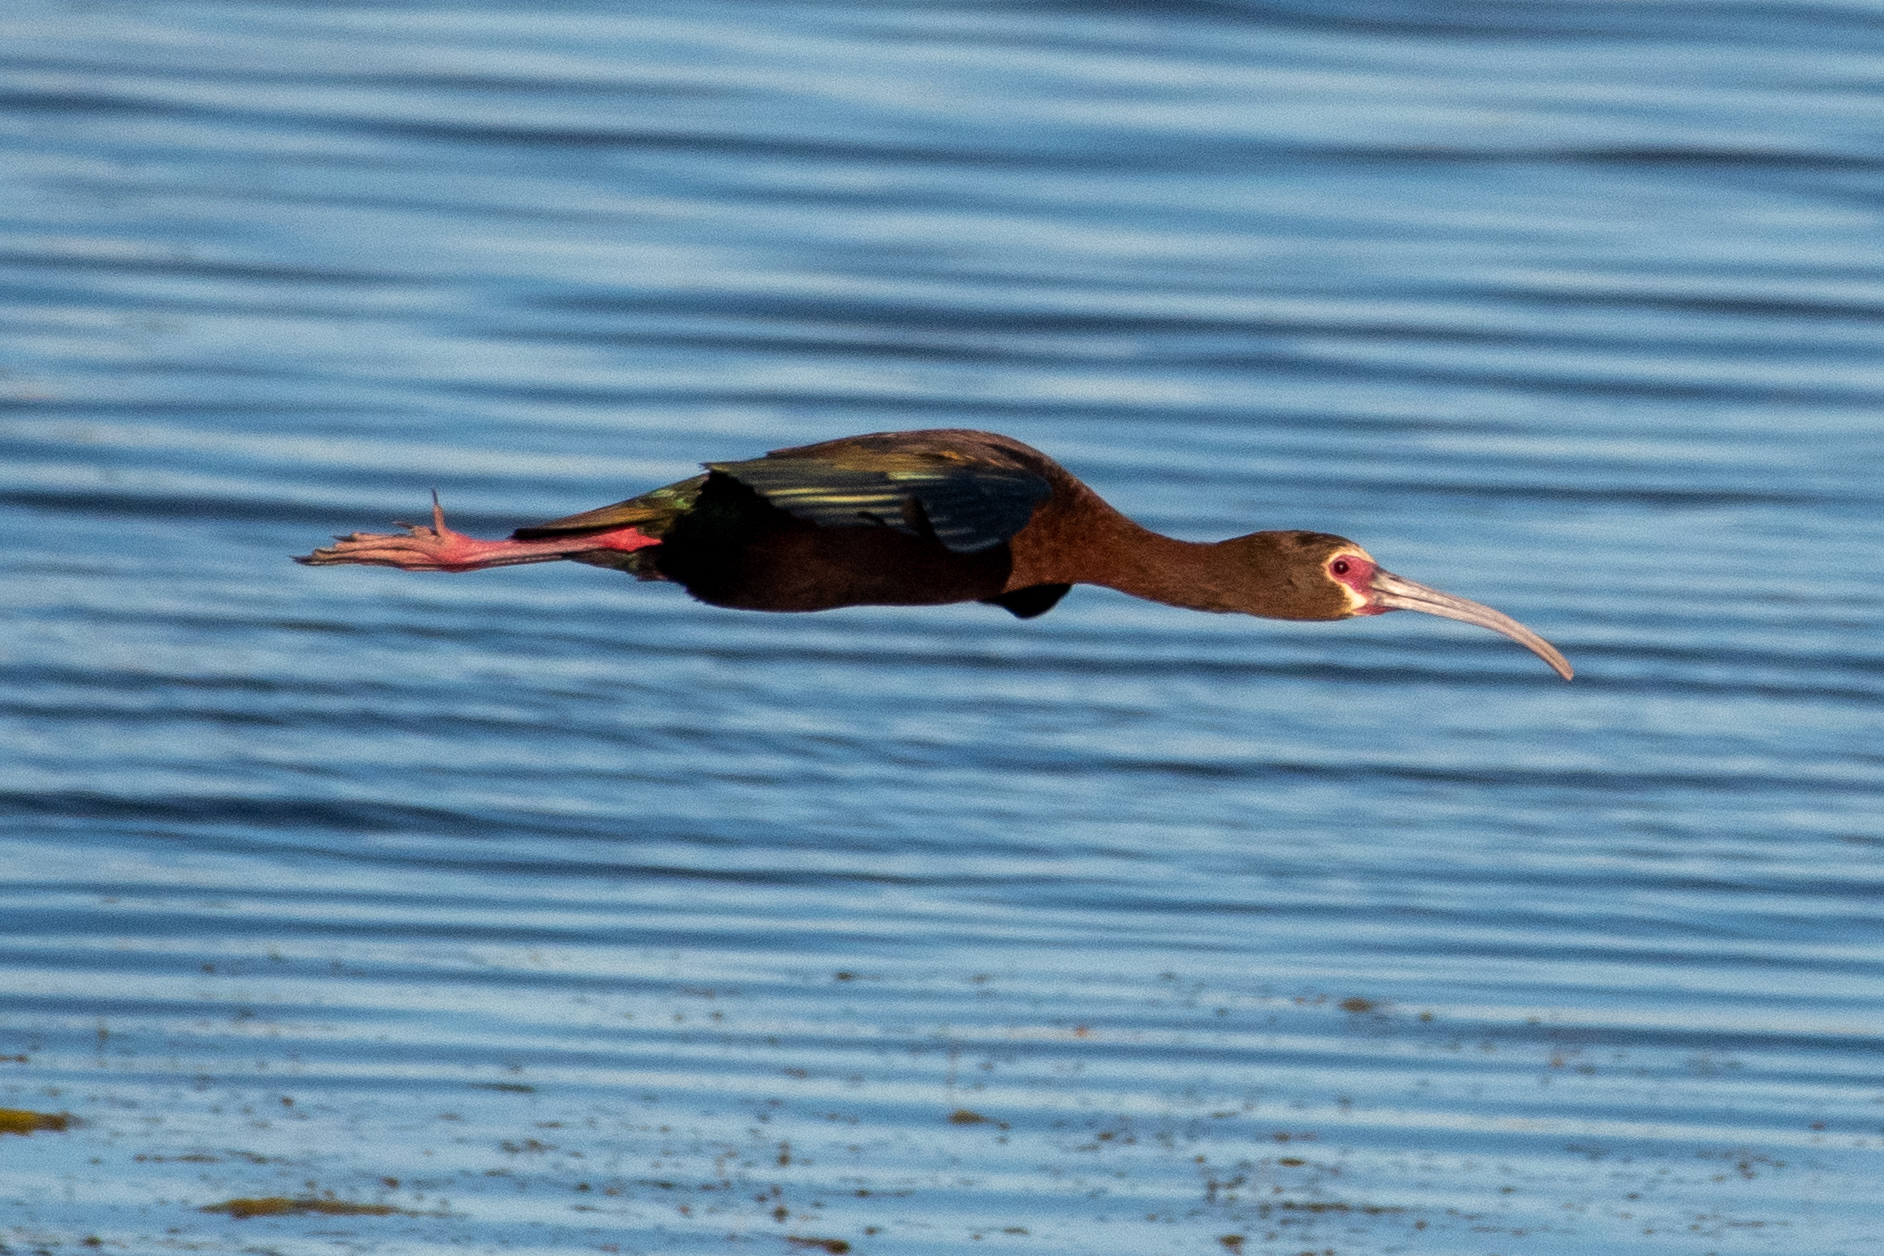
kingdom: Animalia
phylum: Chordata
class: Aves
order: Pelecaniformes
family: Threskiornithidae
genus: Plegadis
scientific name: Plegadis chihi
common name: White-faced ibis
